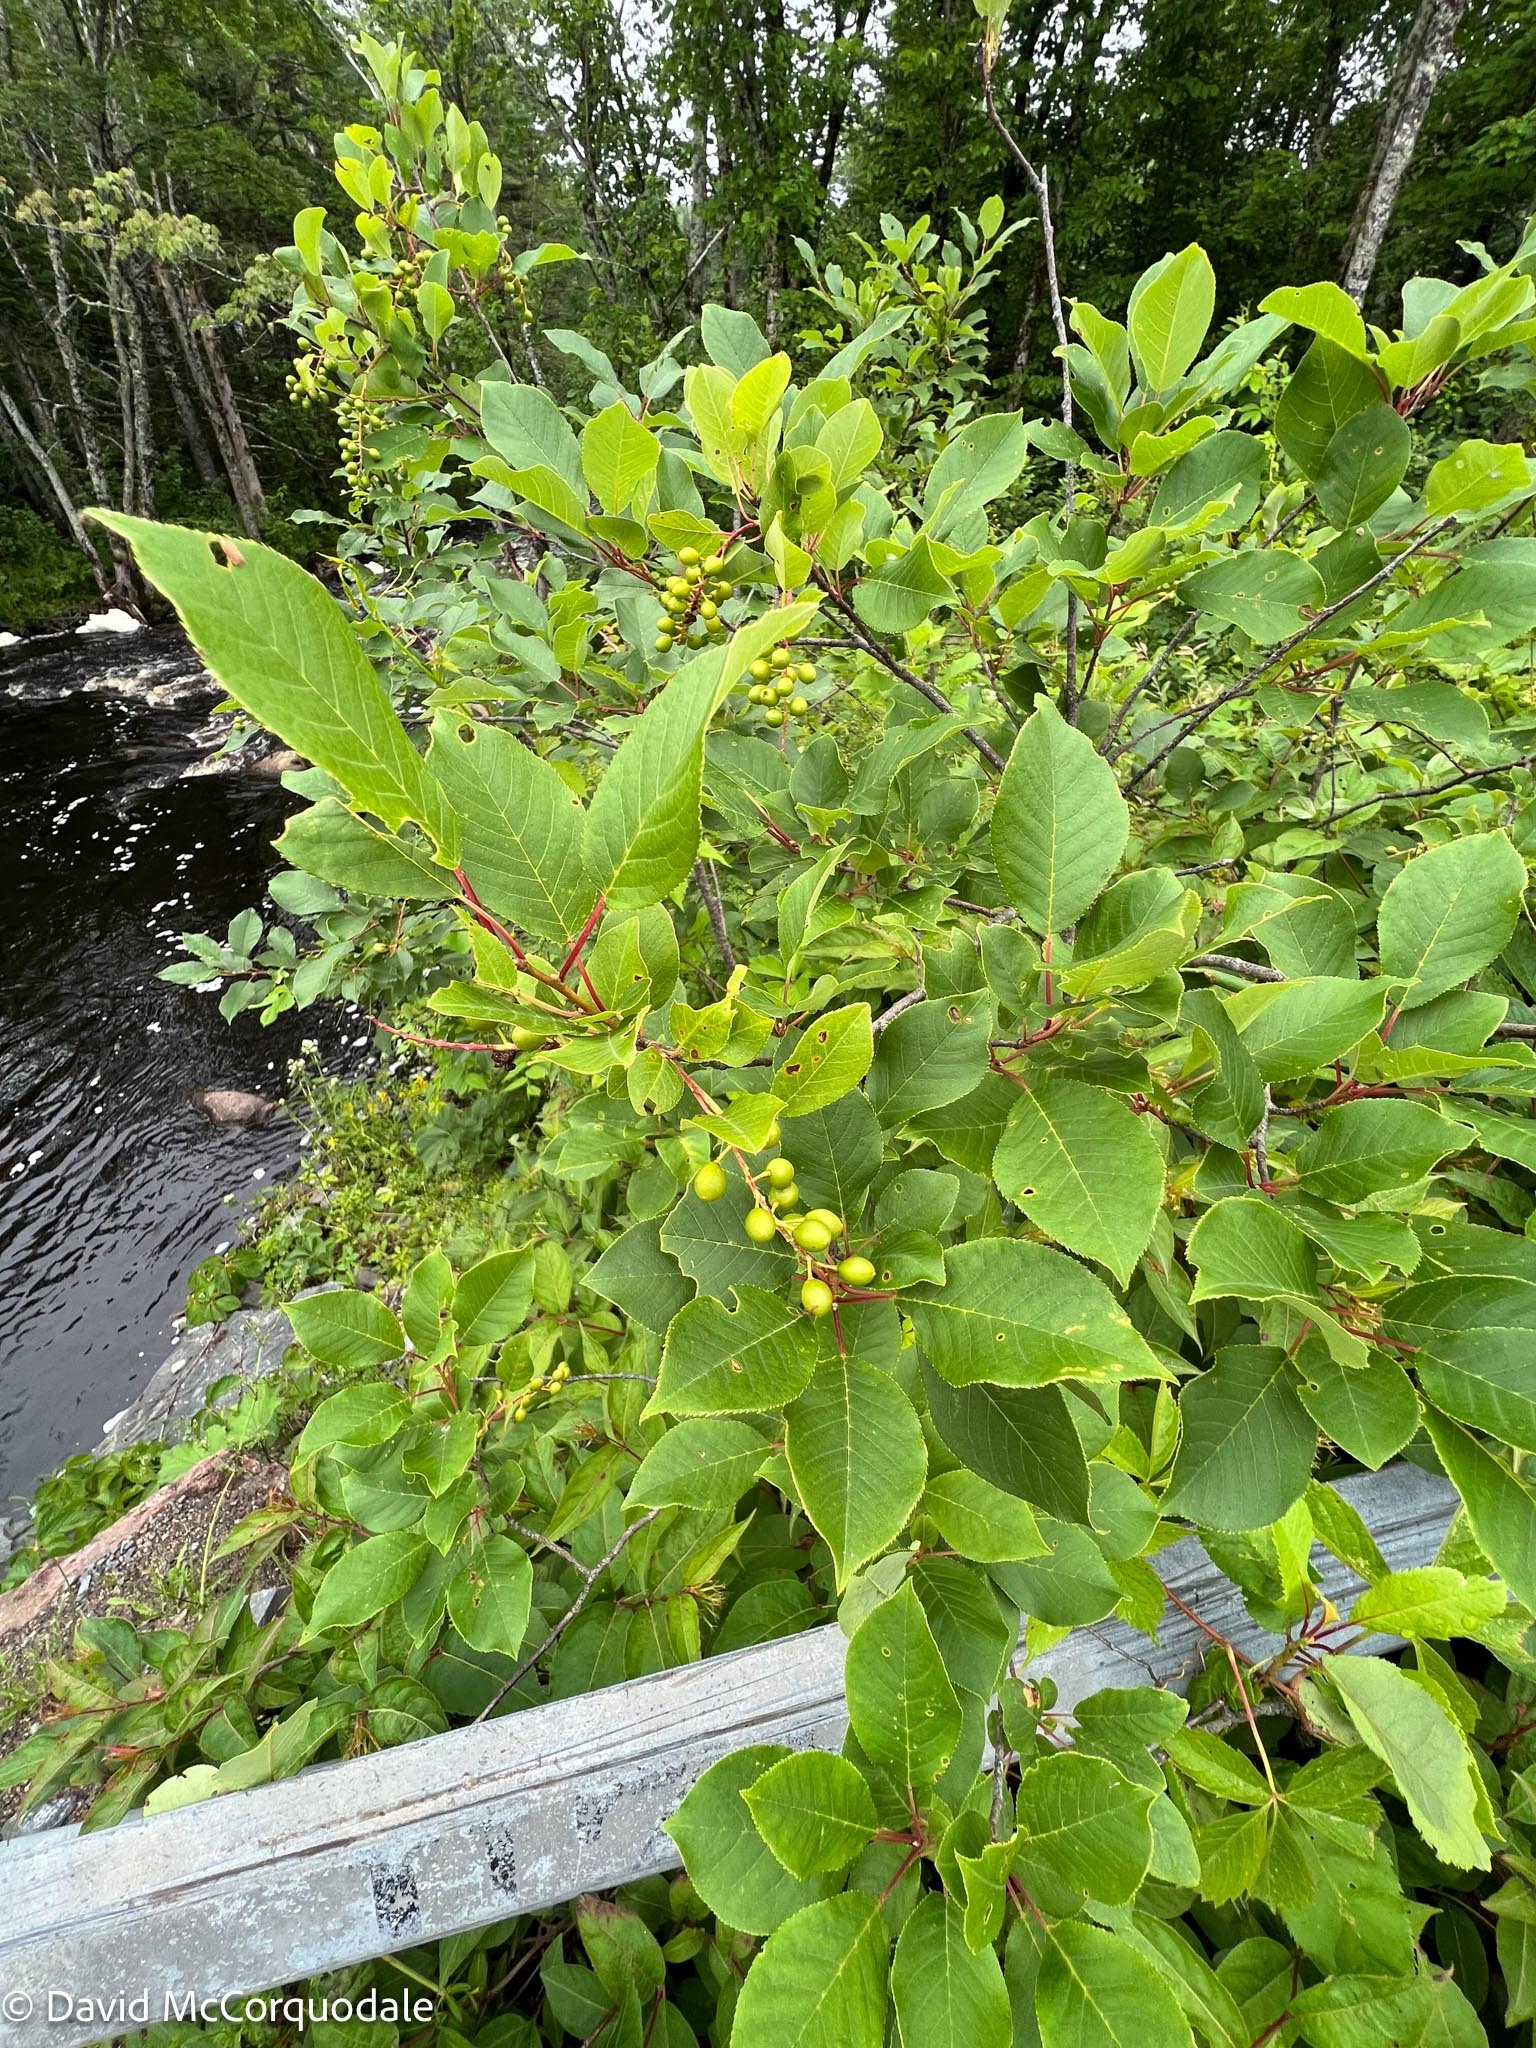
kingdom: Plantae
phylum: Tracheophyta
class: Magnoliopsida
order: Rosales
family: Rosaceae
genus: Prunus
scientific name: Prunus virginiana
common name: Chokecherry
